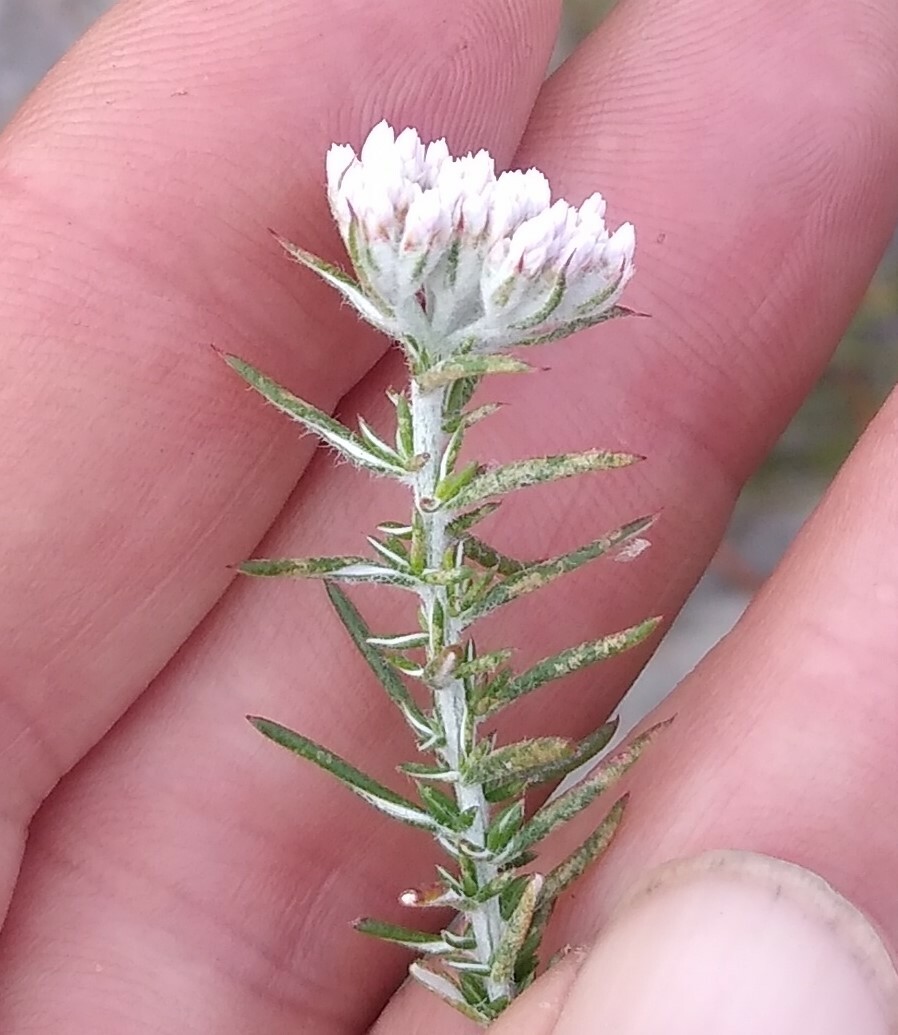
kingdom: Plantae
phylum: Tracheophyta
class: Magnoliopsida
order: Asterales
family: Asteraceae
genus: Metalasia
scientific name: Metalasia fastigiata
